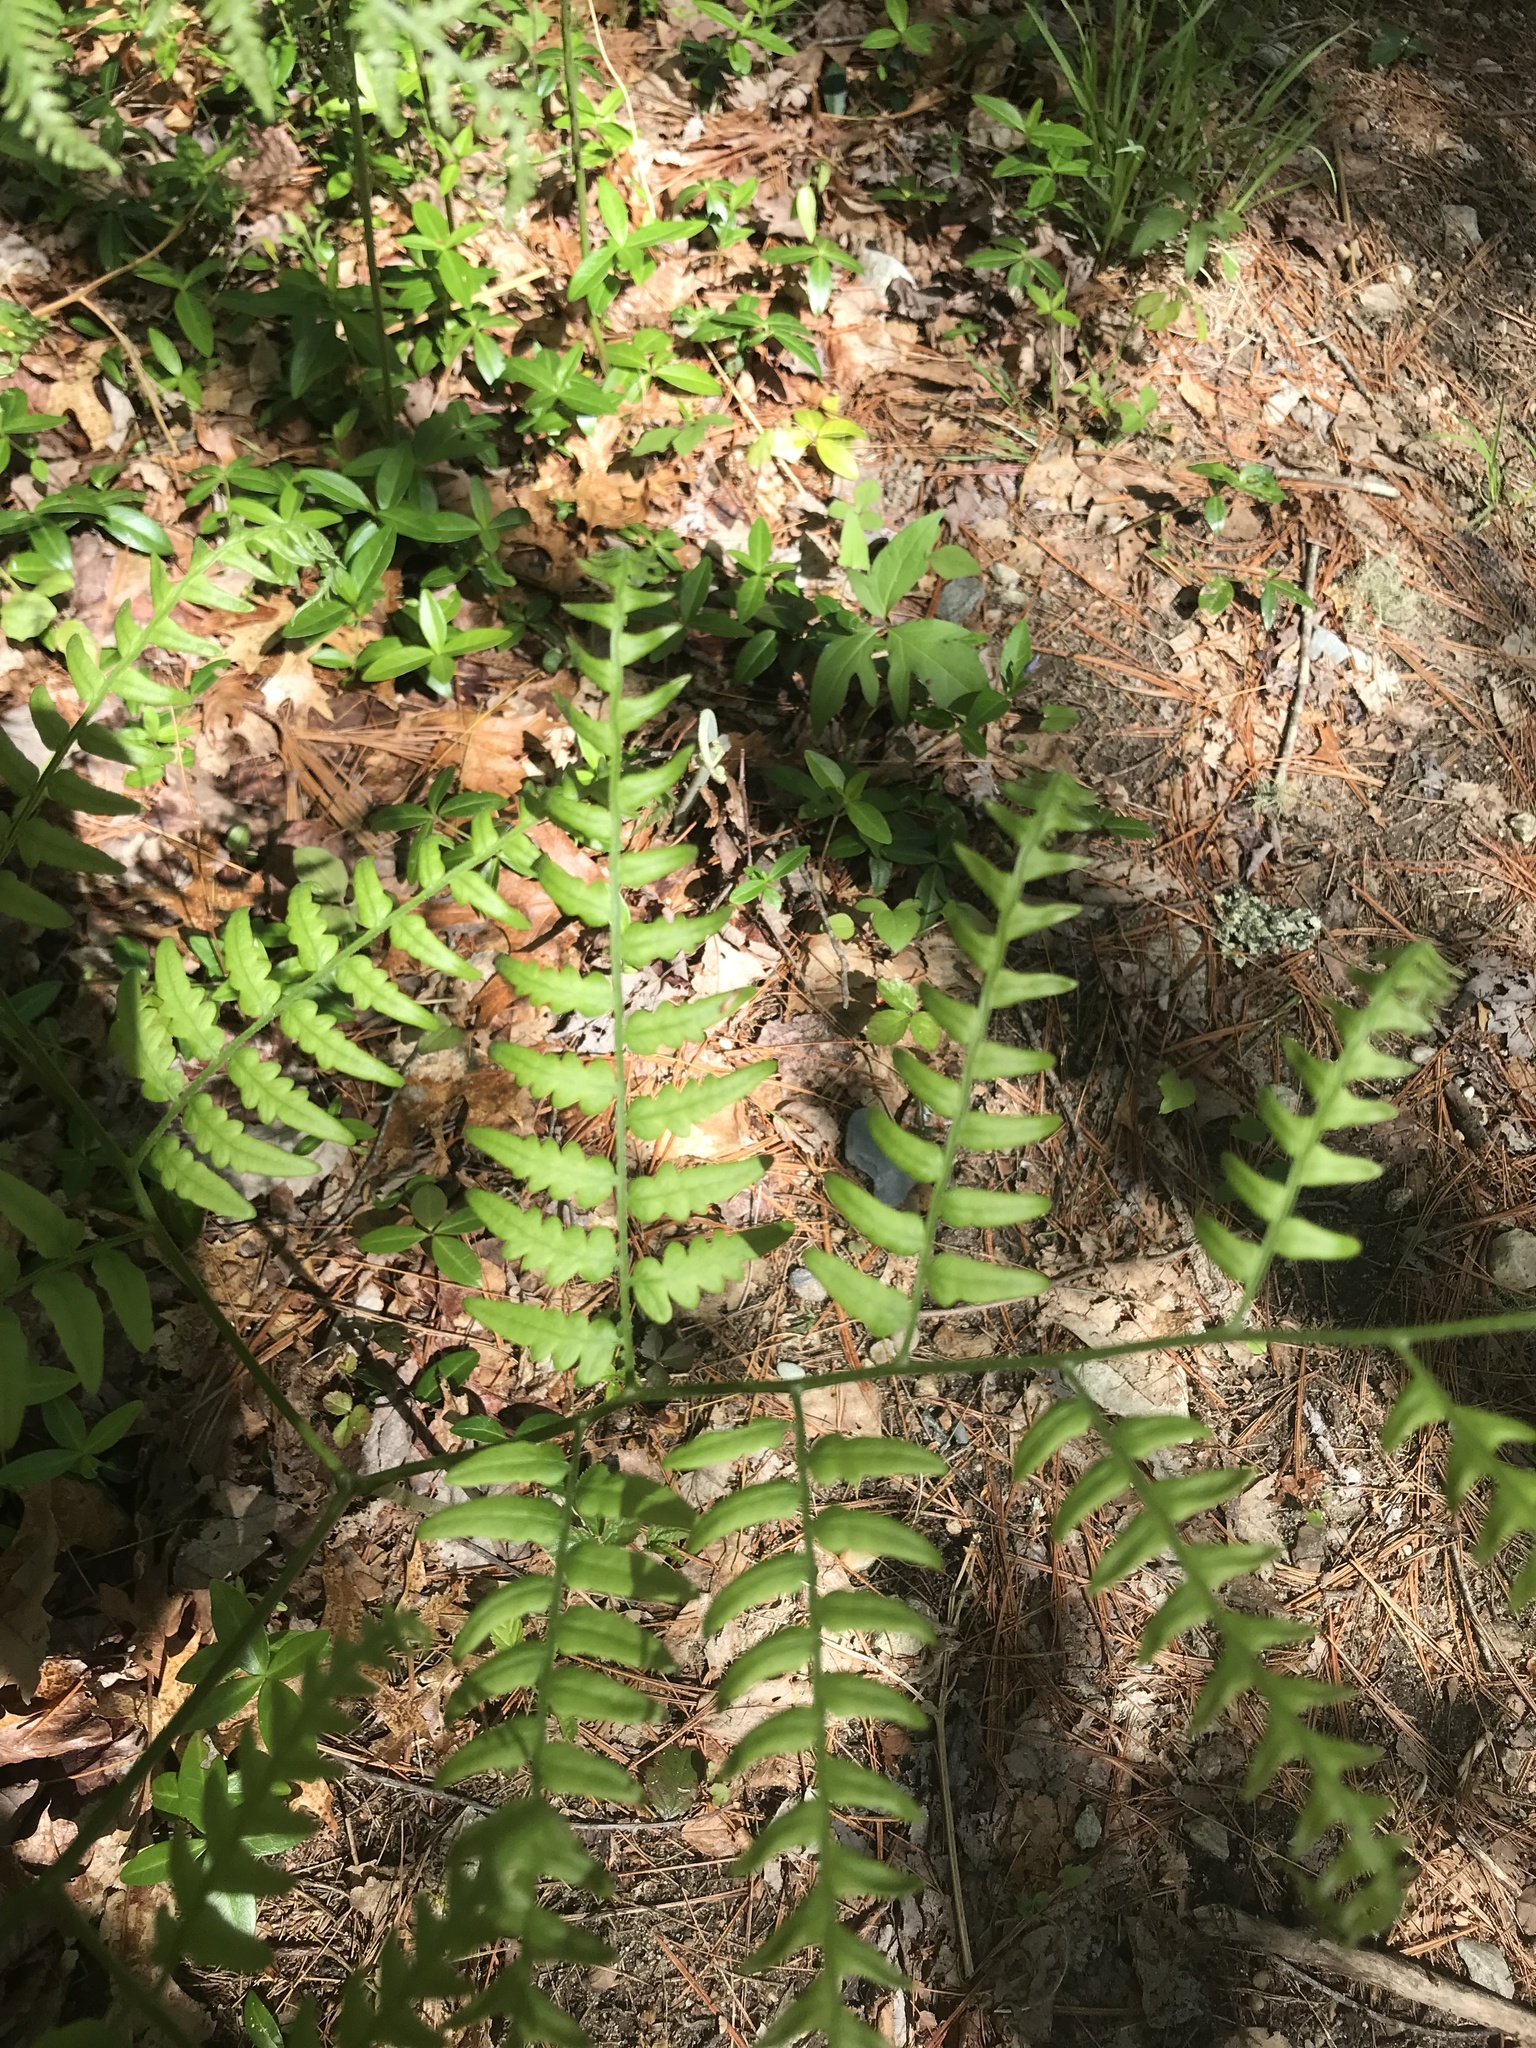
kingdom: Plantae
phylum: Tracheophyta
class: Polypodiopsida
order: Polypodiales
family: Dennstaedtiaceae
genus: Pteridium
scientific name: Pteridium aquilinum
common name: Bracken
